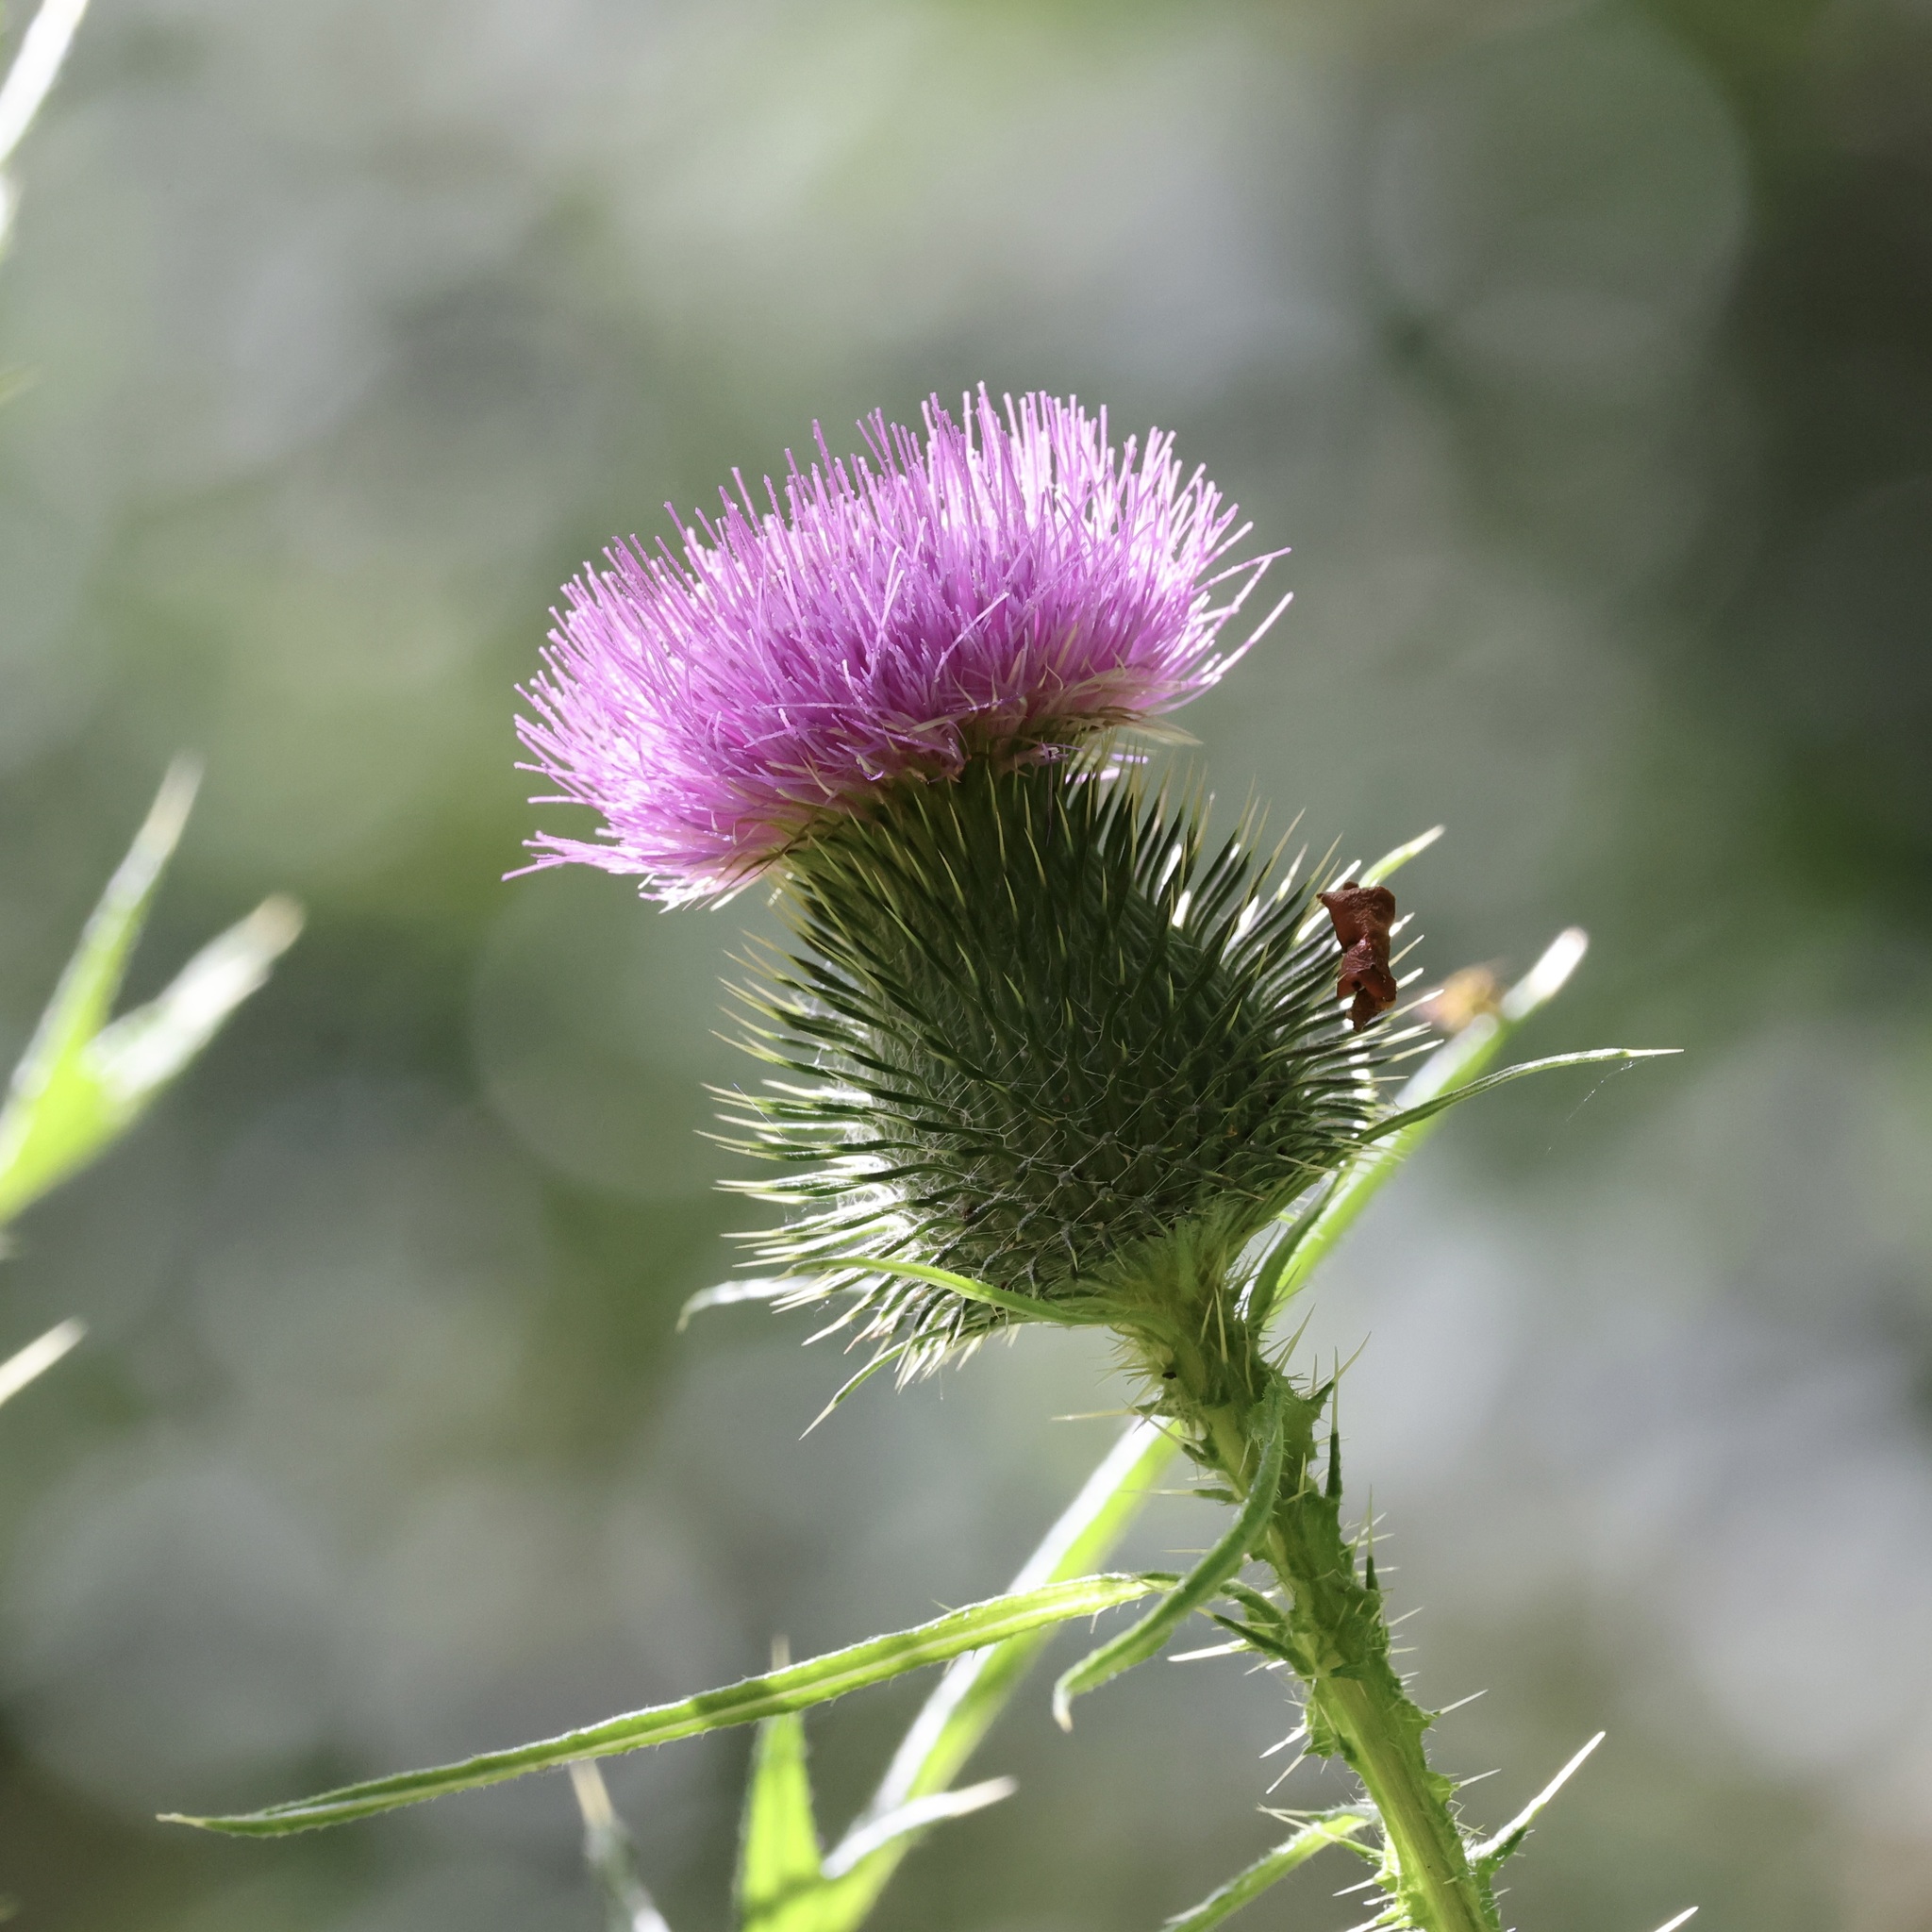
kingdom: Plantae
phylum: Tracheophyta
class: Magnoliopsida
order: Asterales
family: Asteraceae
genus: Cirsium
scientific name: Cirsium vulgare
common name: Bull thistle
